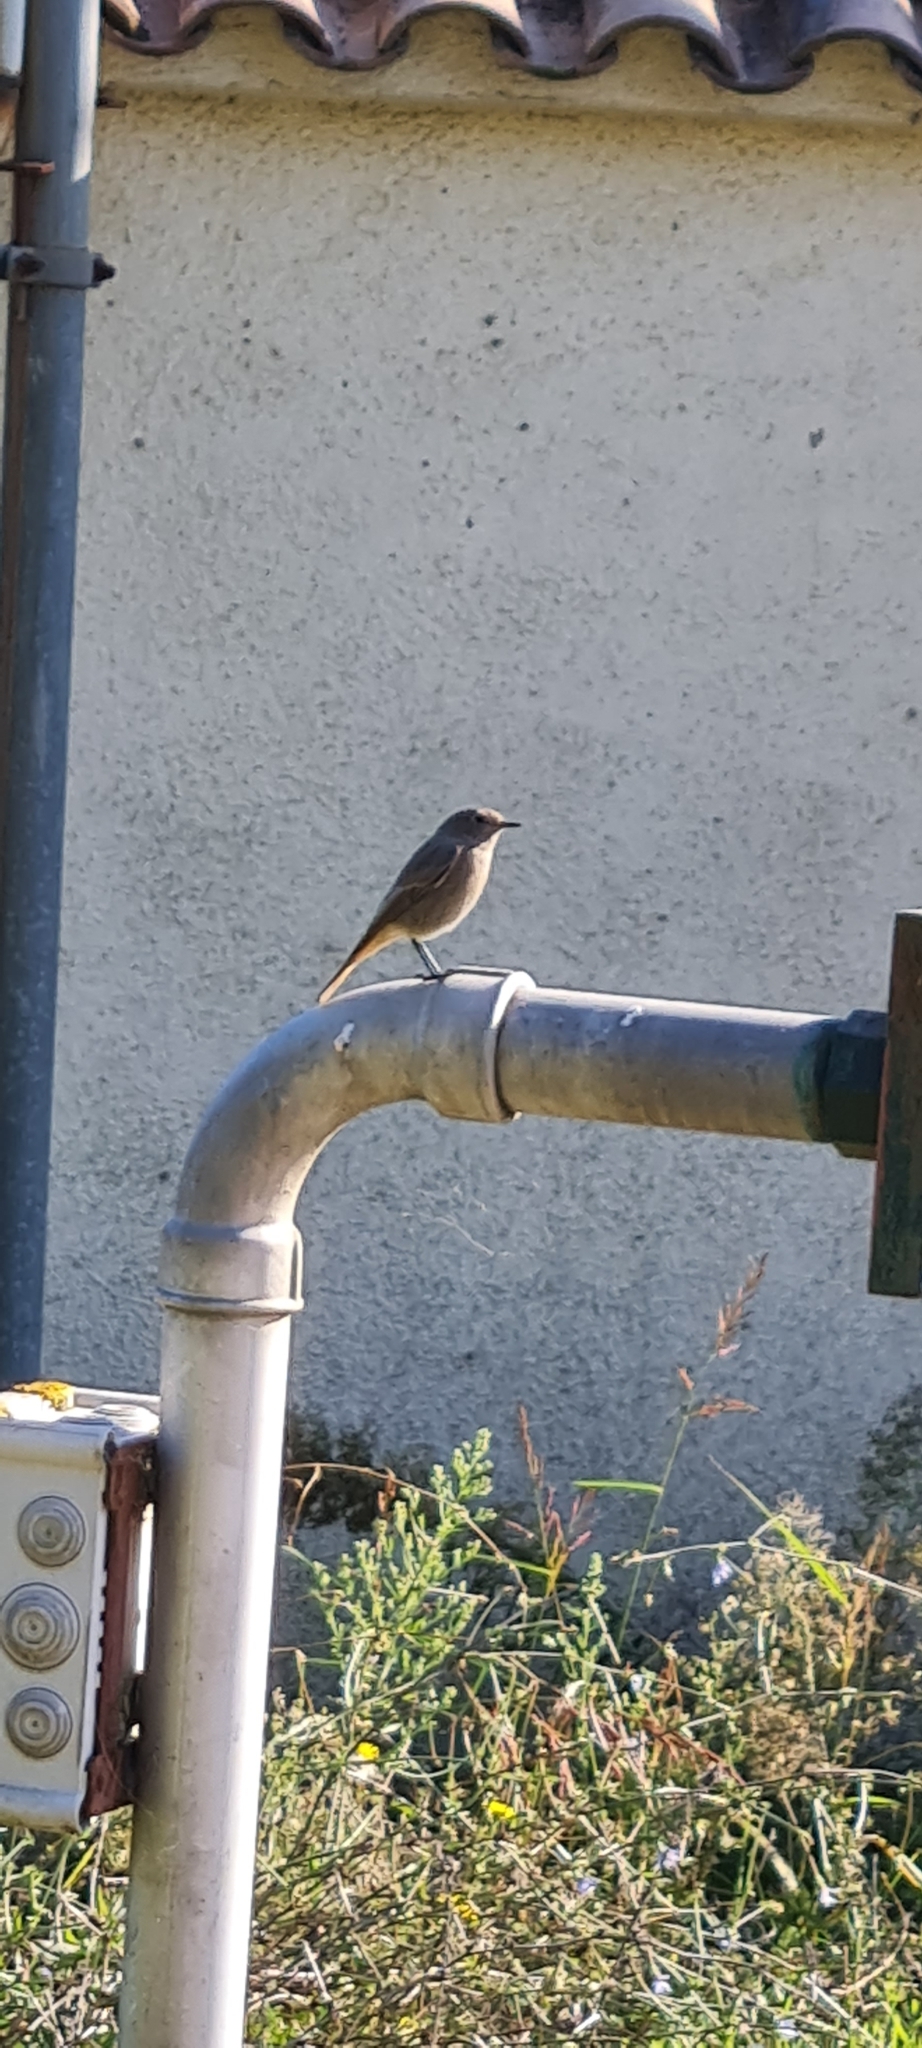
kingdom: Animalia
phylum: Chordata
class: Aves
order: Passeriformes
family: Muscicapidae
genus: Phoenicurus
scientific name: Phoenicurus ochruros
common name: Black redstart
